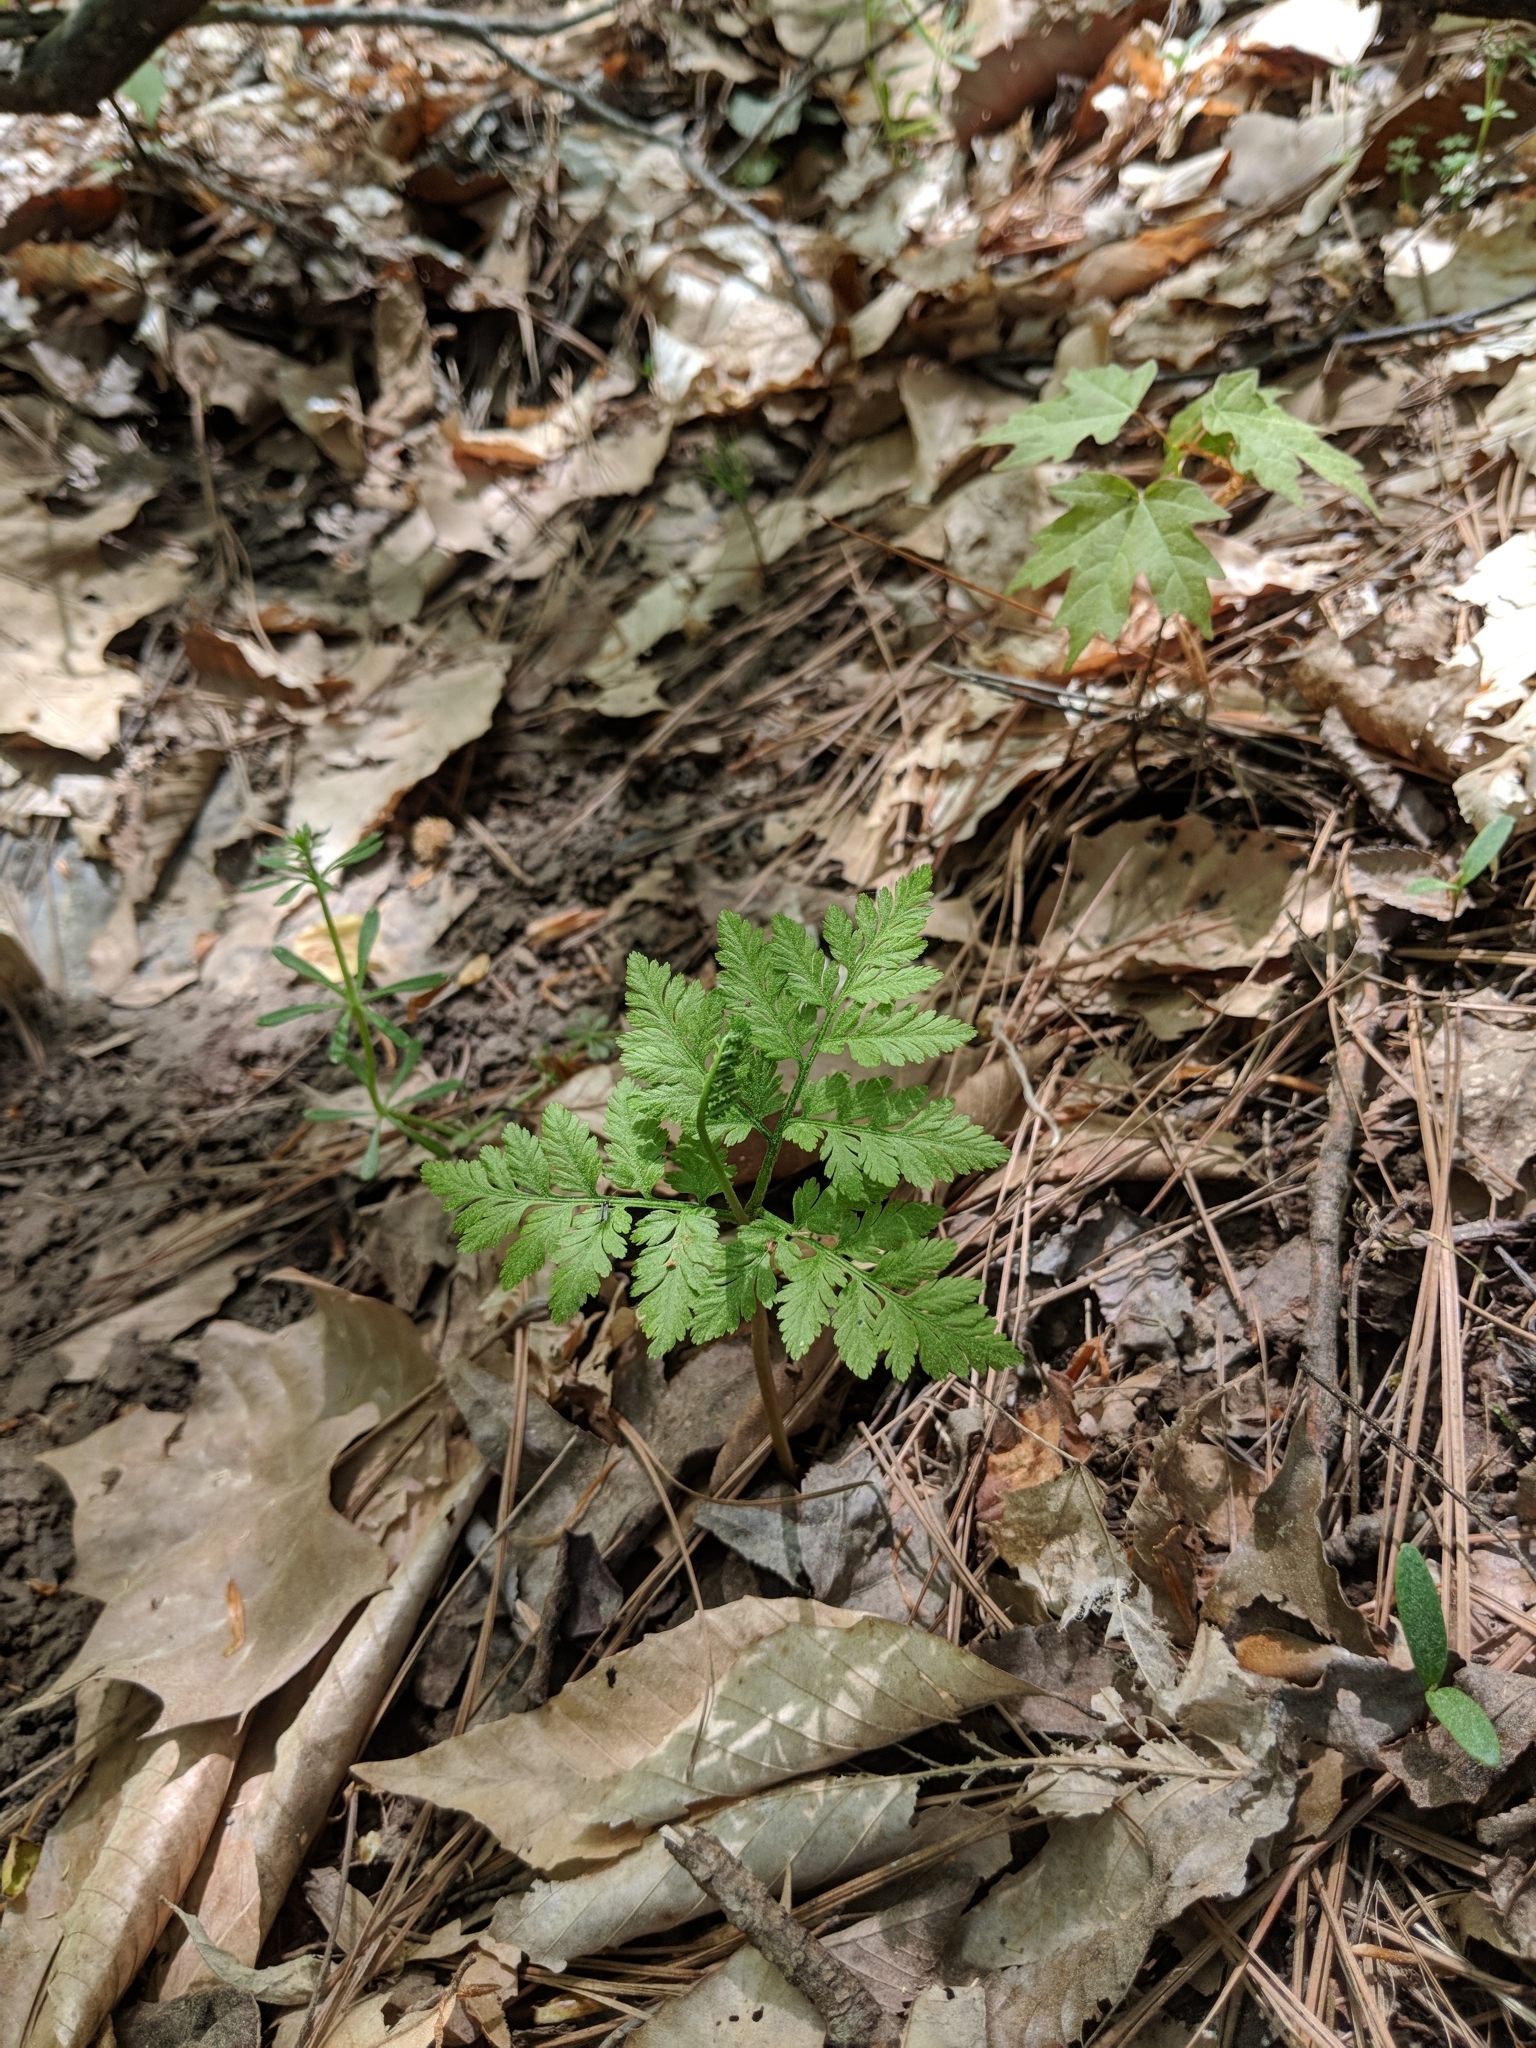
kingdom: Plantae
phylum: Tracheophyta
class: Polypodiopsida
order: Ophioglossales
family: Ophioglossaceae
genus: Botrypus
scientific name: Botrypus virginianus
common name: Common grapefern
